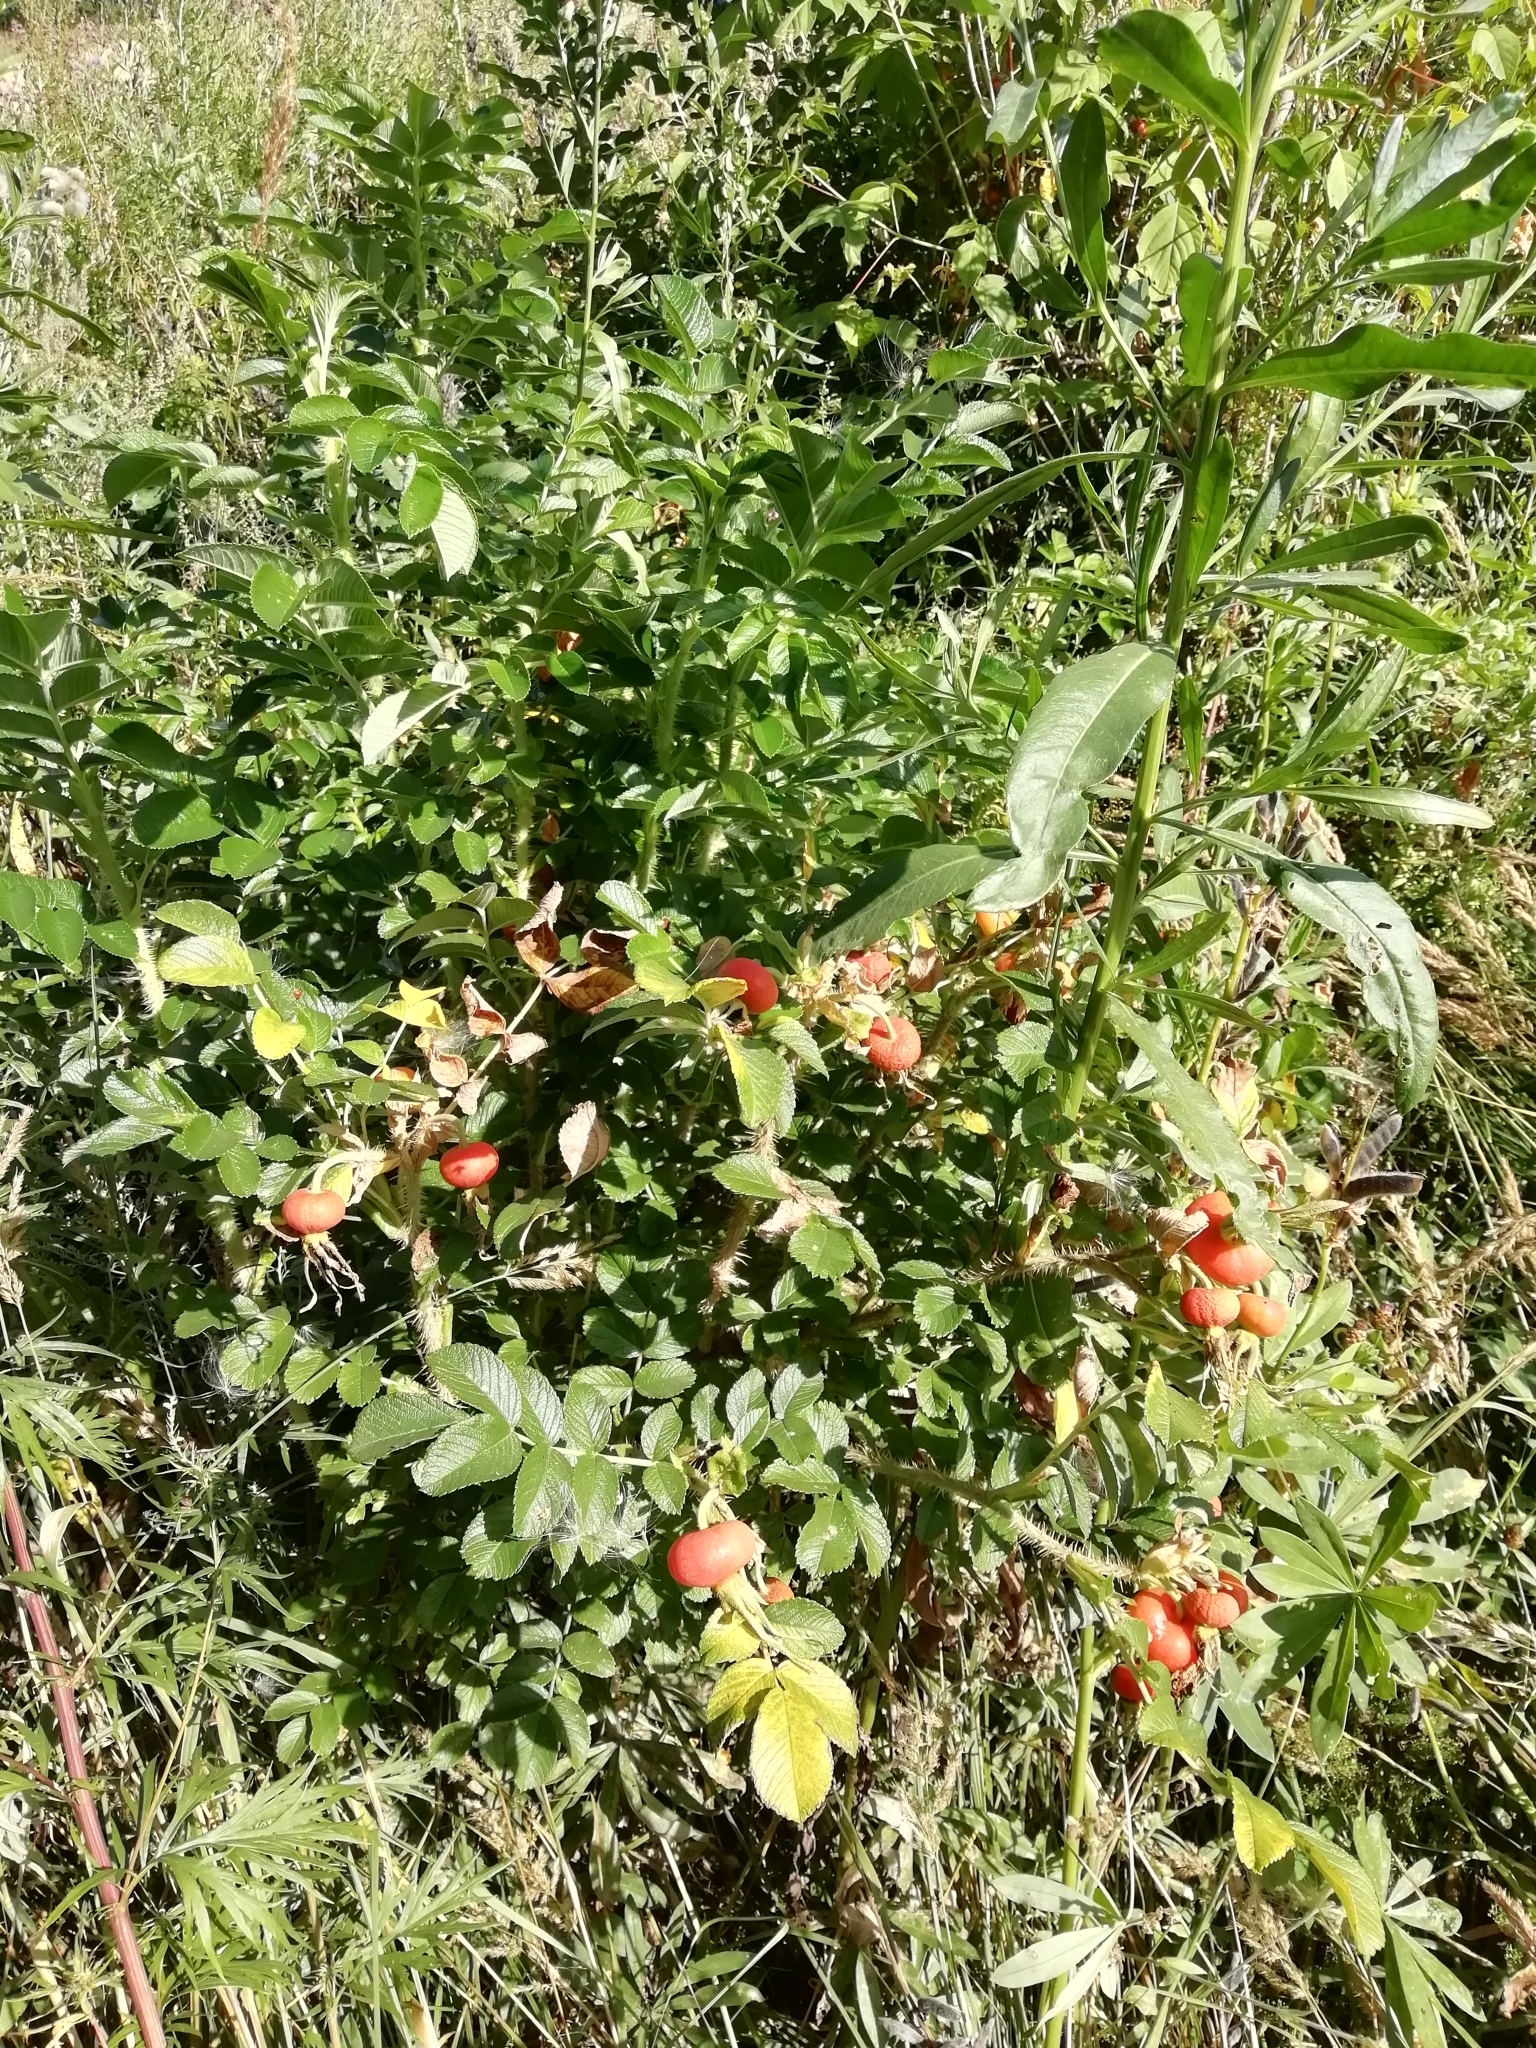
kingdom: Plantae
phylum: Tracheophyta
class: Magnoliopsida
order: Rosales
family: Rosaceae
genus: Rosa
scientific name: Rosa rugosa
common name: Japanese rose
